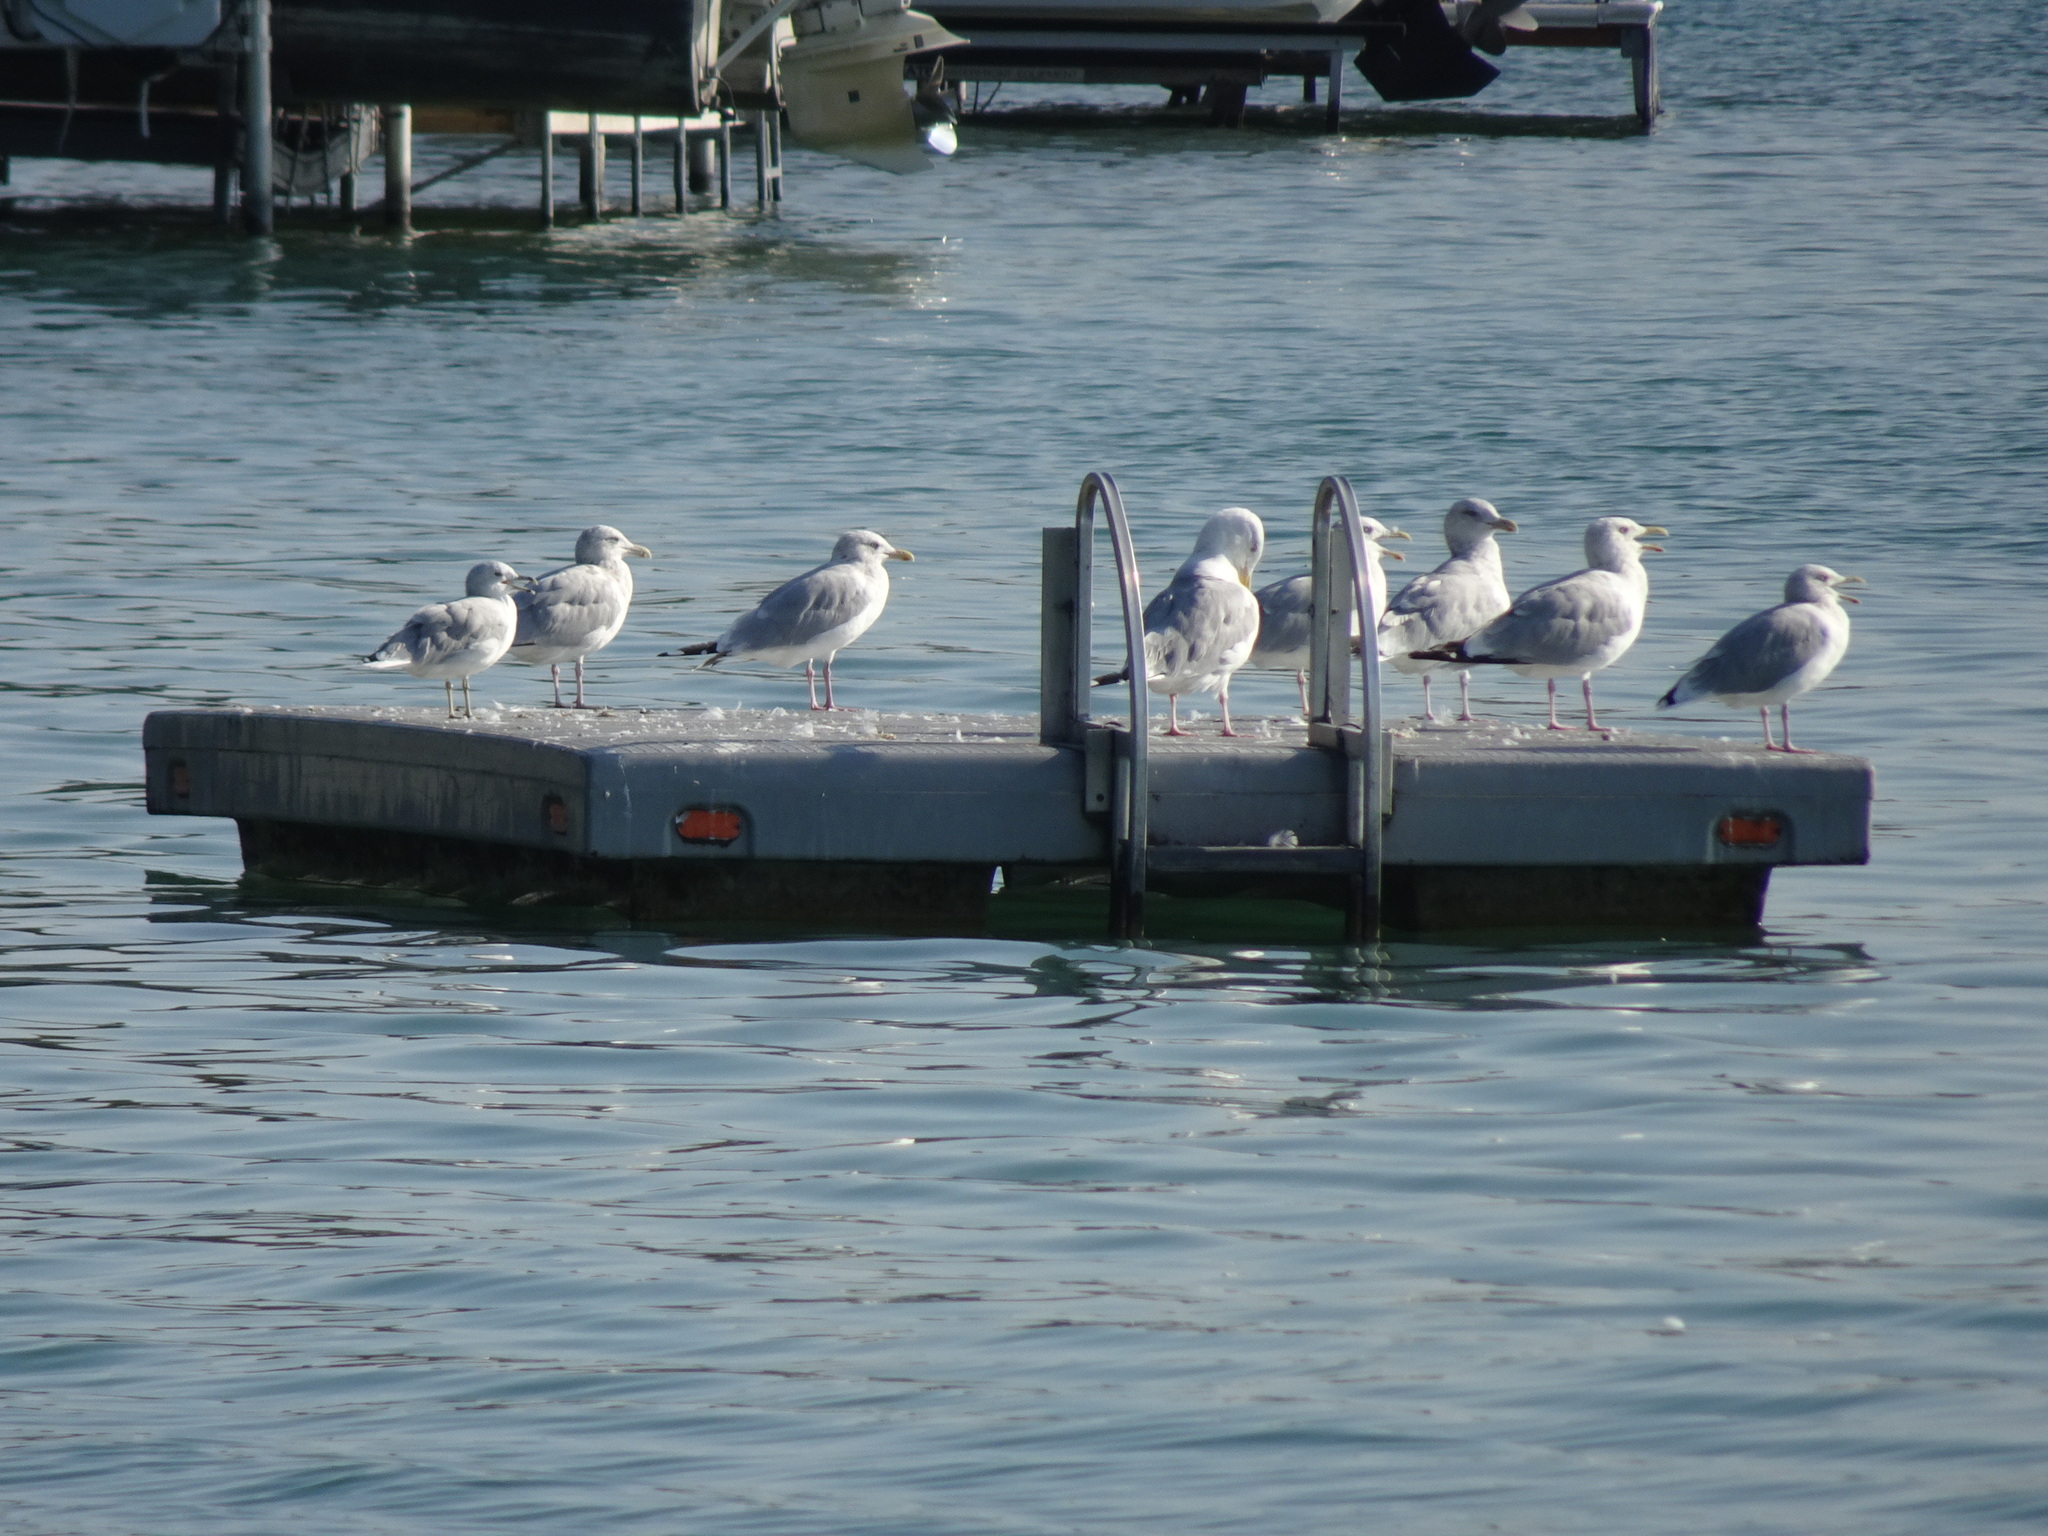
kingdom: Animalia
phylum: Chordata
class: Aves
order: Charadriiformes
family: Laridae
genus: Larus
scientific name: Larus argentatus
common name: Herring gull
